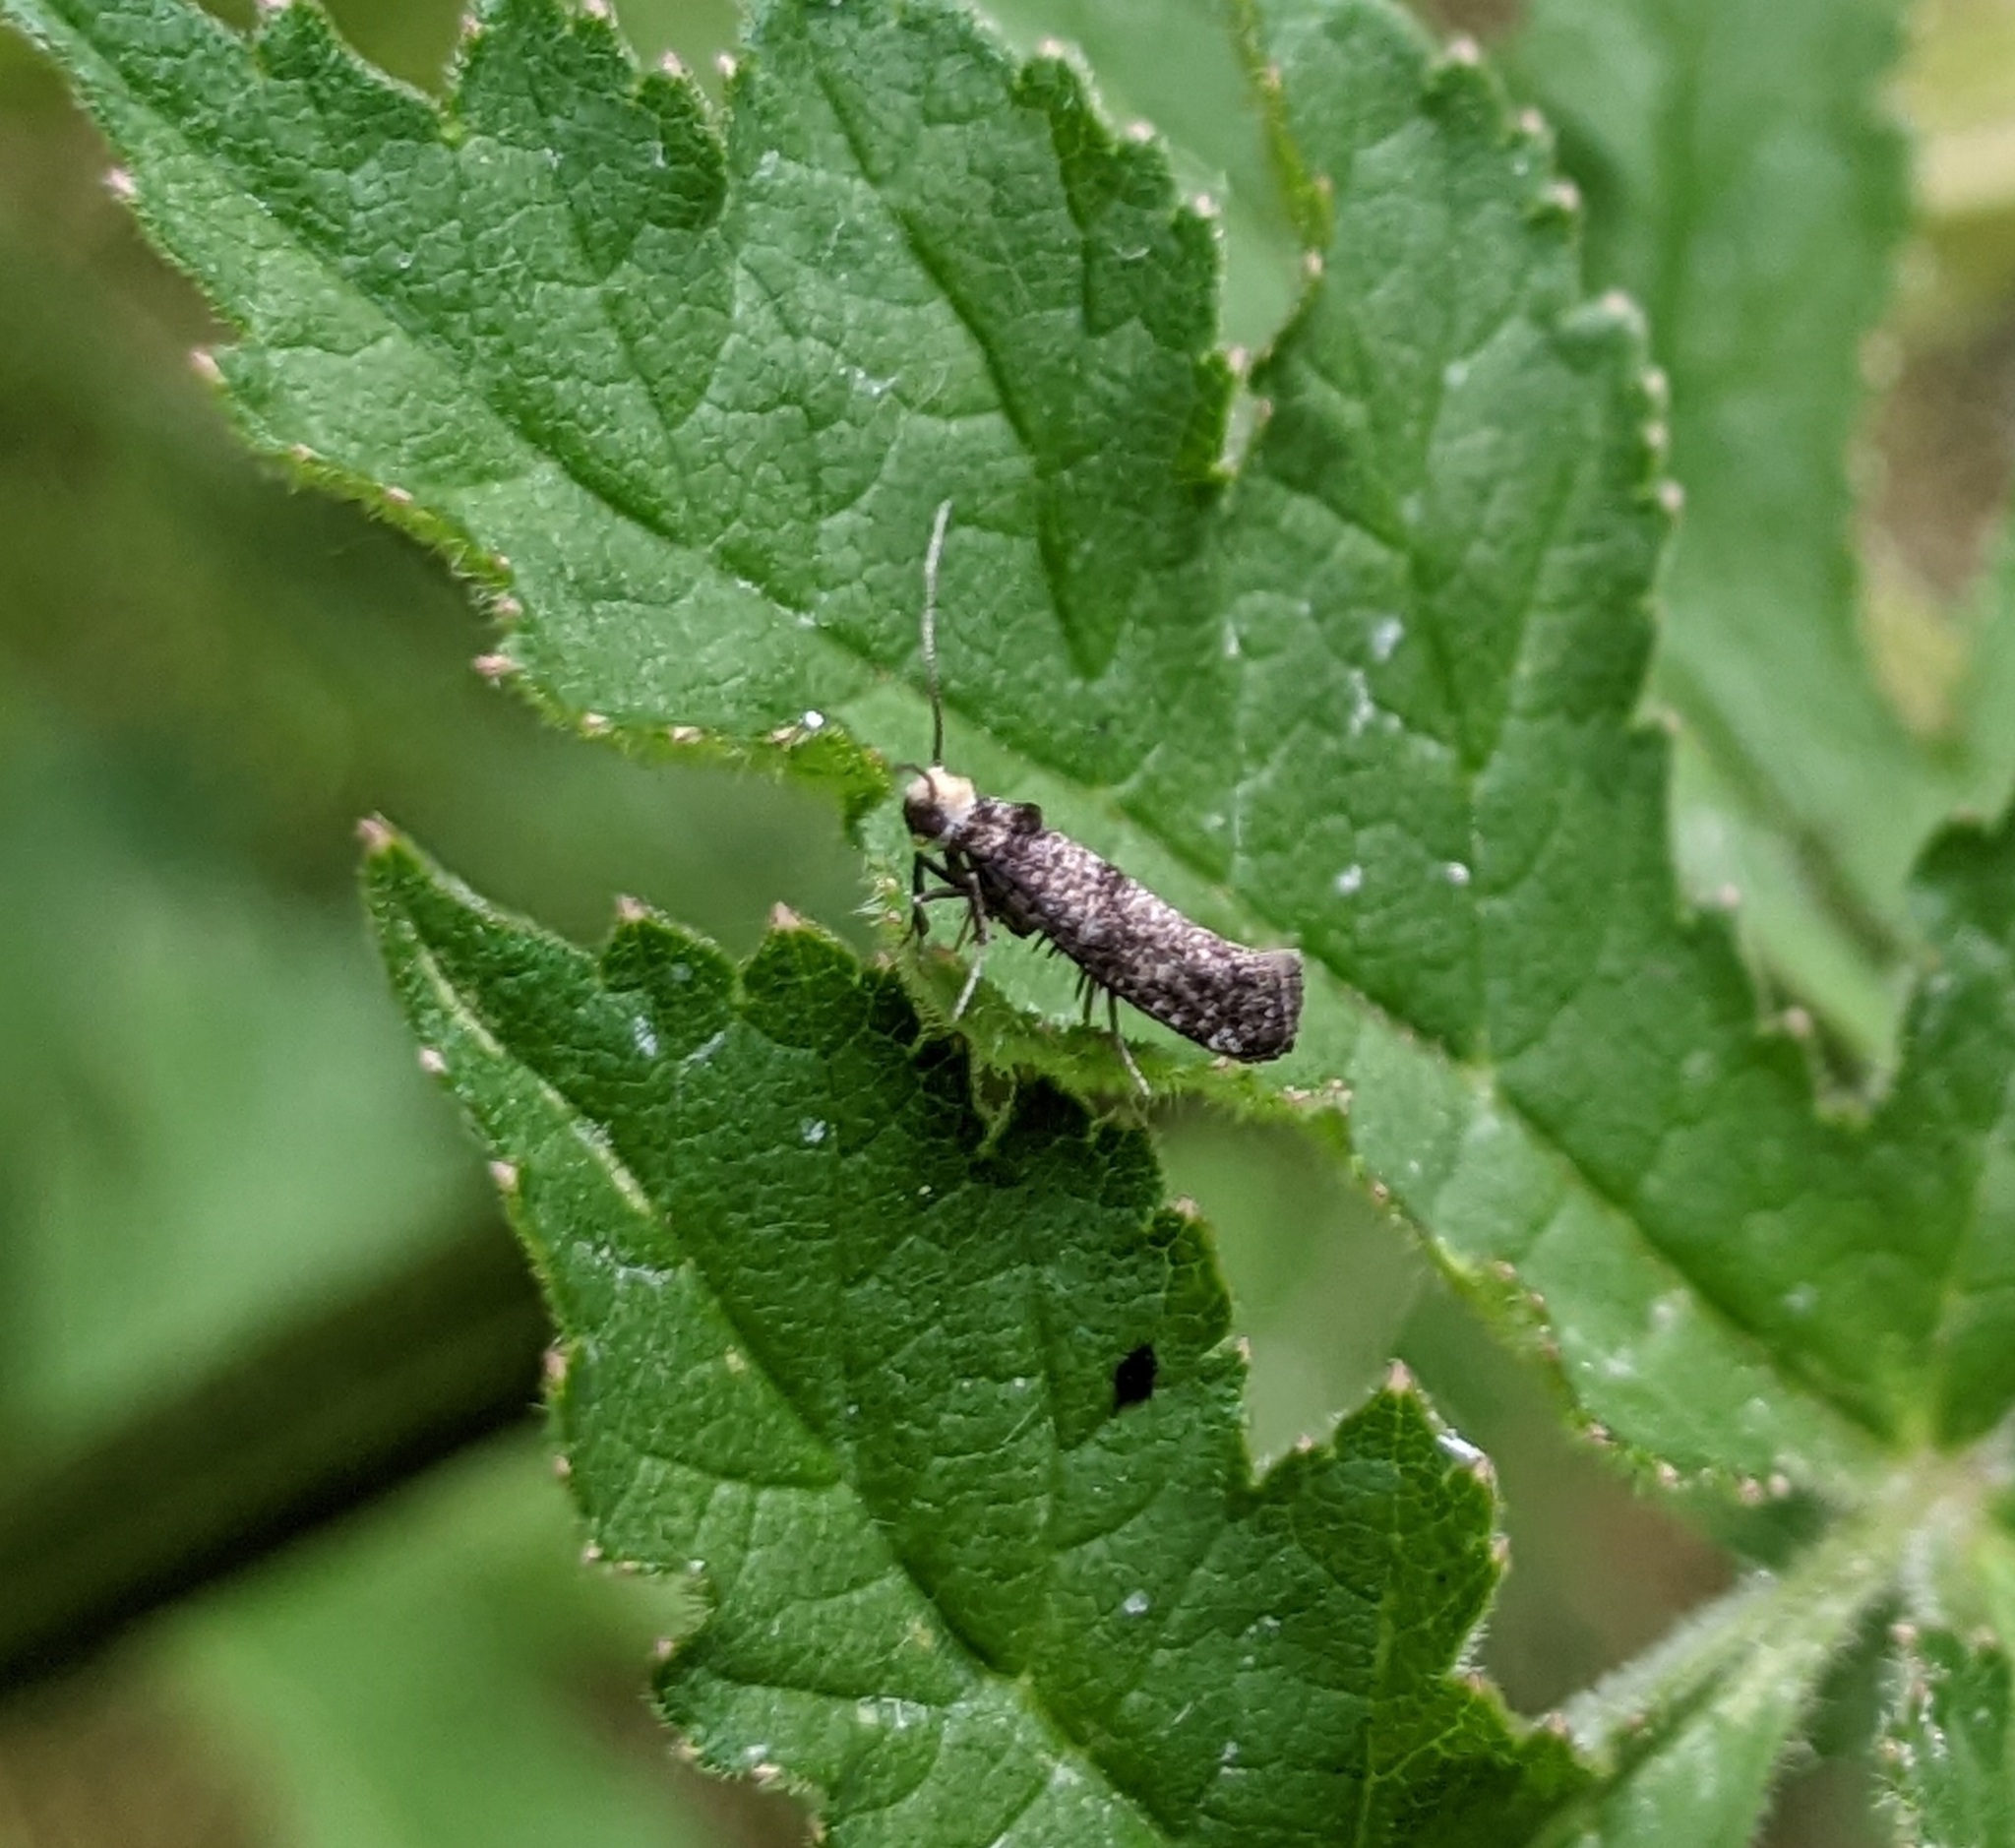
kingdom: Animalia
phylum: Arthropoda
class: Insecta
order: Lepidoptera
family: Yponomeutidae
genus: Swammerdamia
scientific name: Swammerdamia pyrella
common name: Little ermine moth
